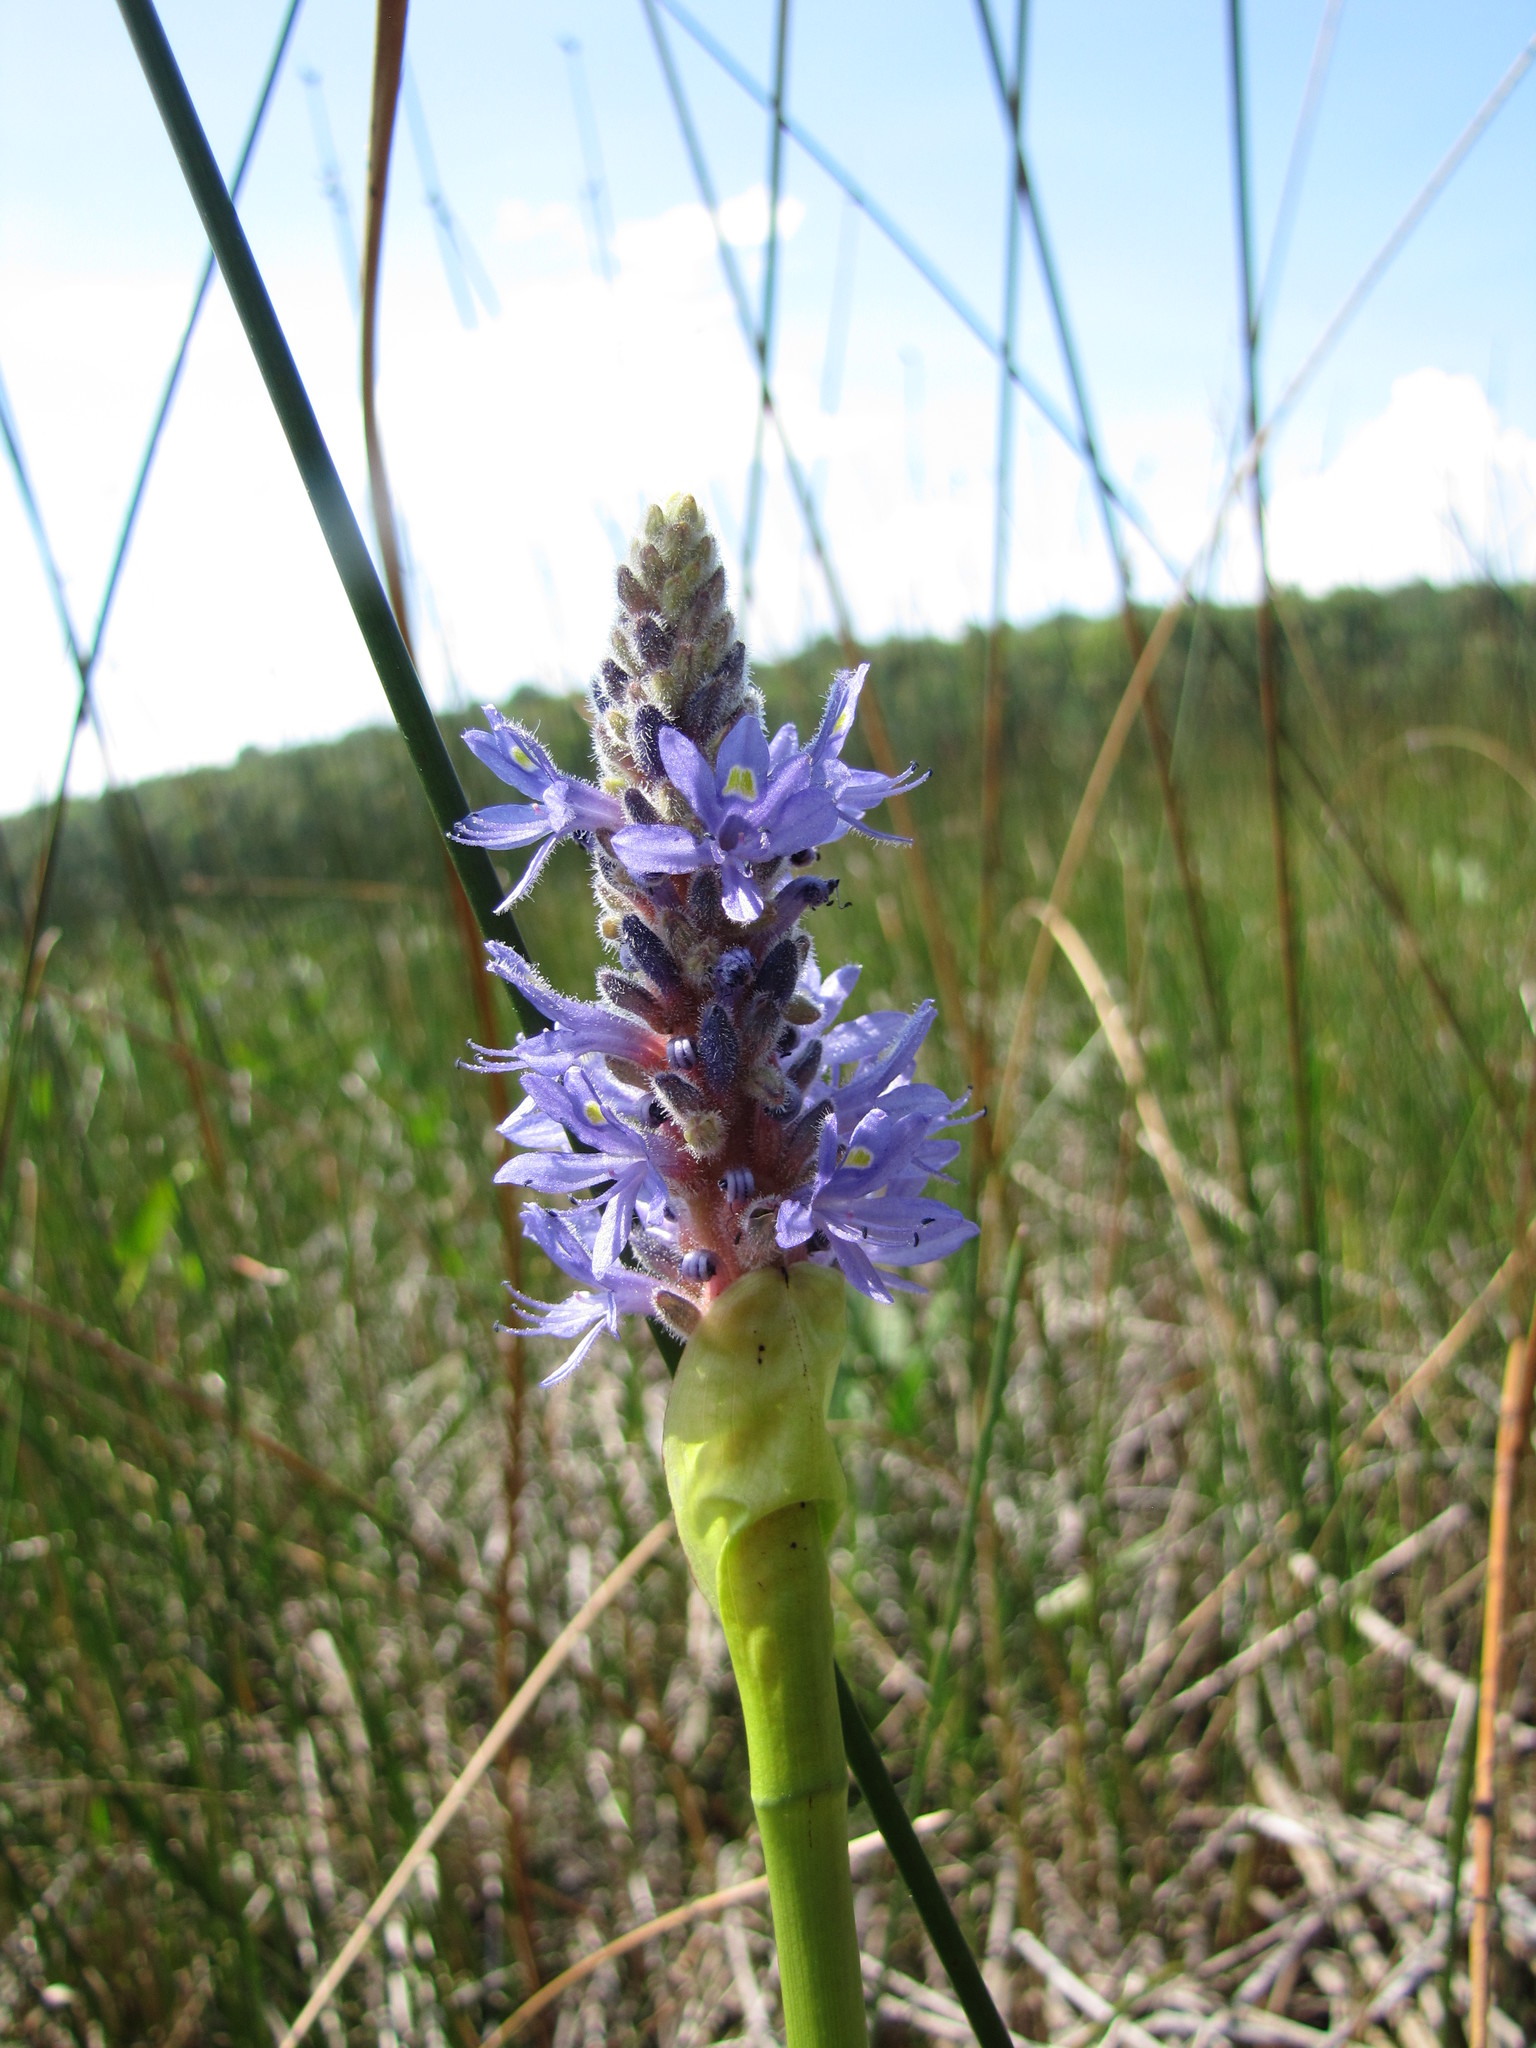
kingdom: Plantae
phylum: Tracheophyta
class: Liliopsida
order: Commelinales
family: Pontederiaceae
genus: Pontederia
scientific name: Pontederia cordata
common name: Pickerelweed
